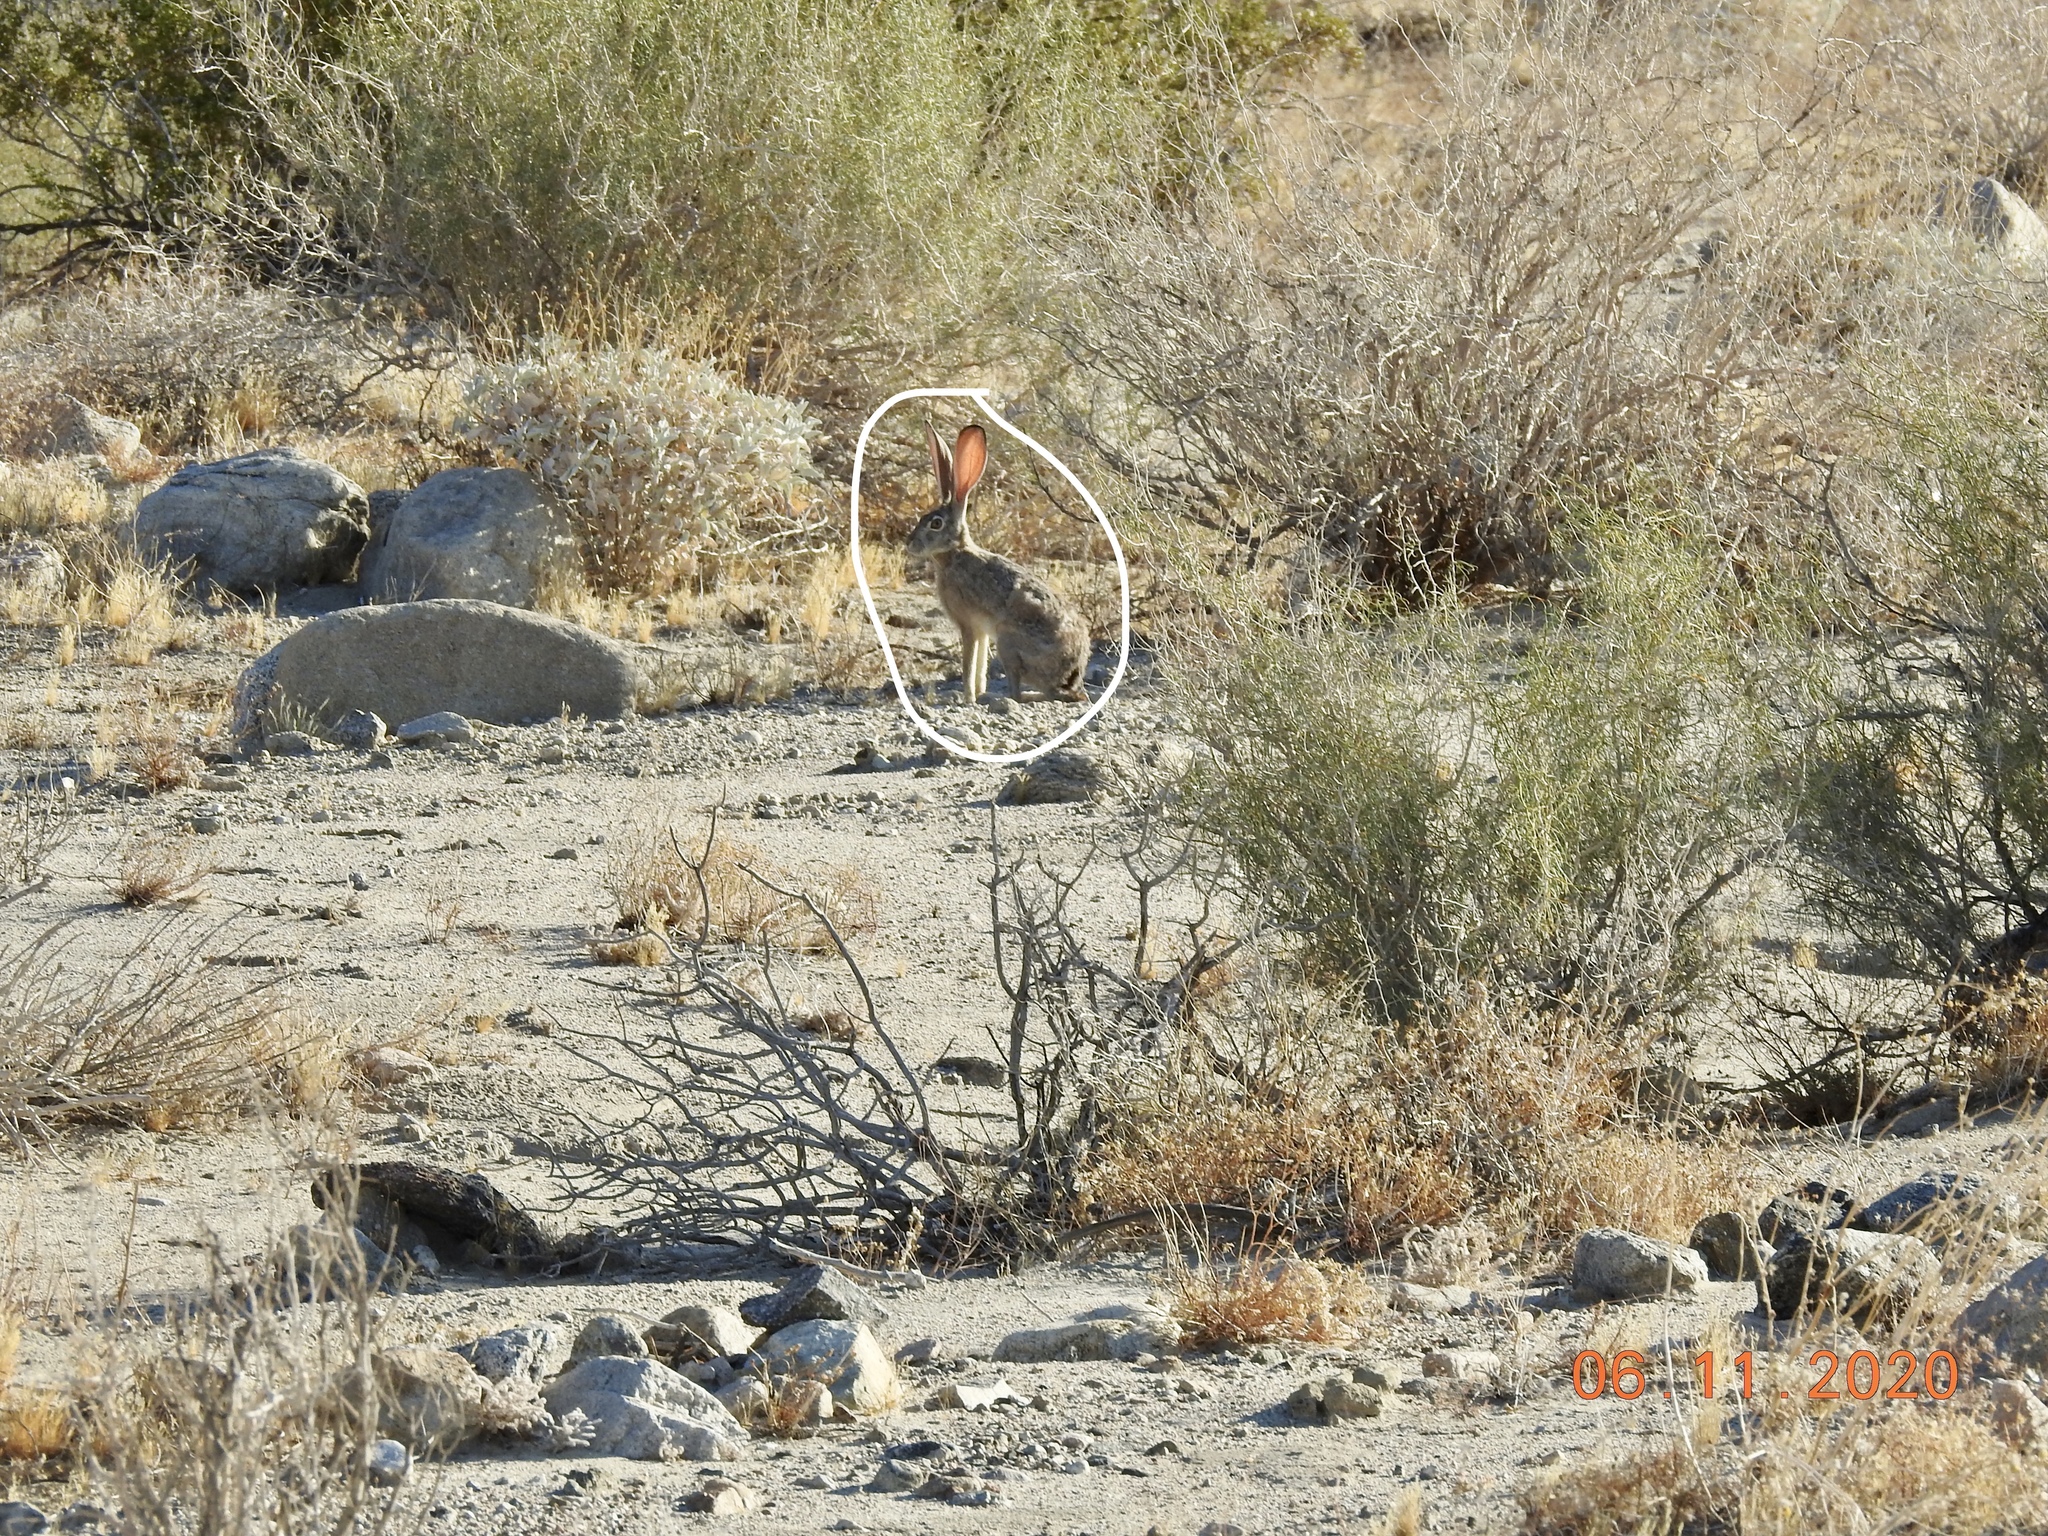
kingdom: Animalia
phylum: Chordata
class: Mammalia
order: Lagomorpha
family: Leporidae
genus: Lepus
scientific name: Lepus californicus
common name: Black-tailed jackrabbit
